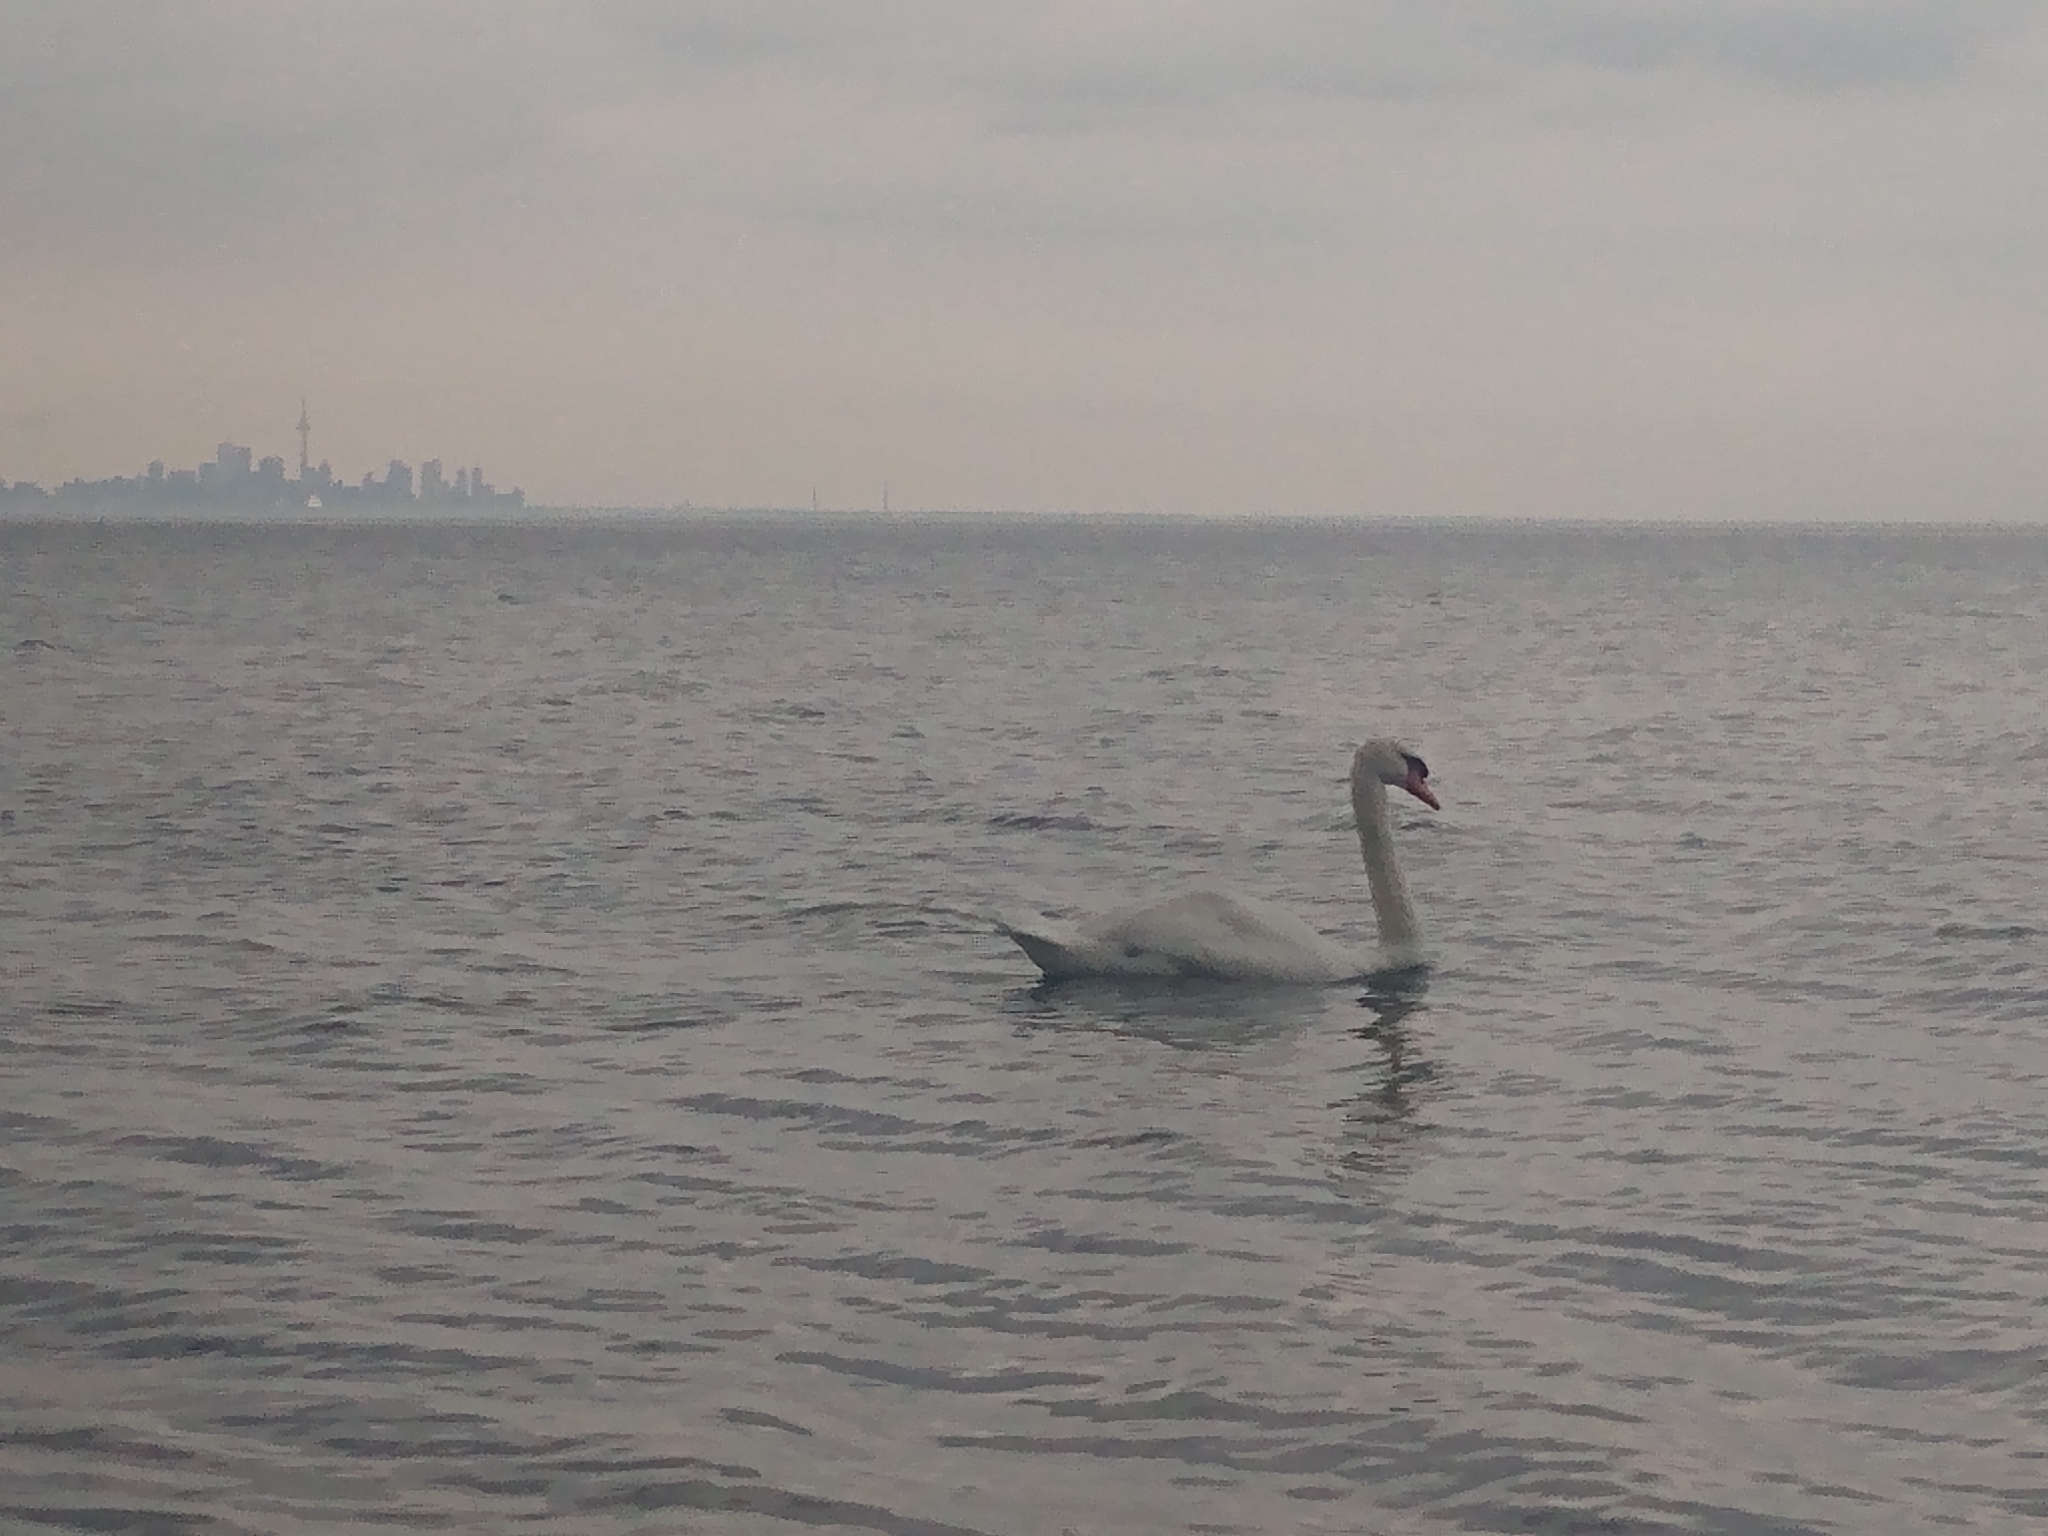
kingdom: Animalia
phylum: Chordata
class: Aves
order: Anseriformes
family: Anatidae
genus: Cygnus
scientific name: Cygnus olor
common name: Mute swan
